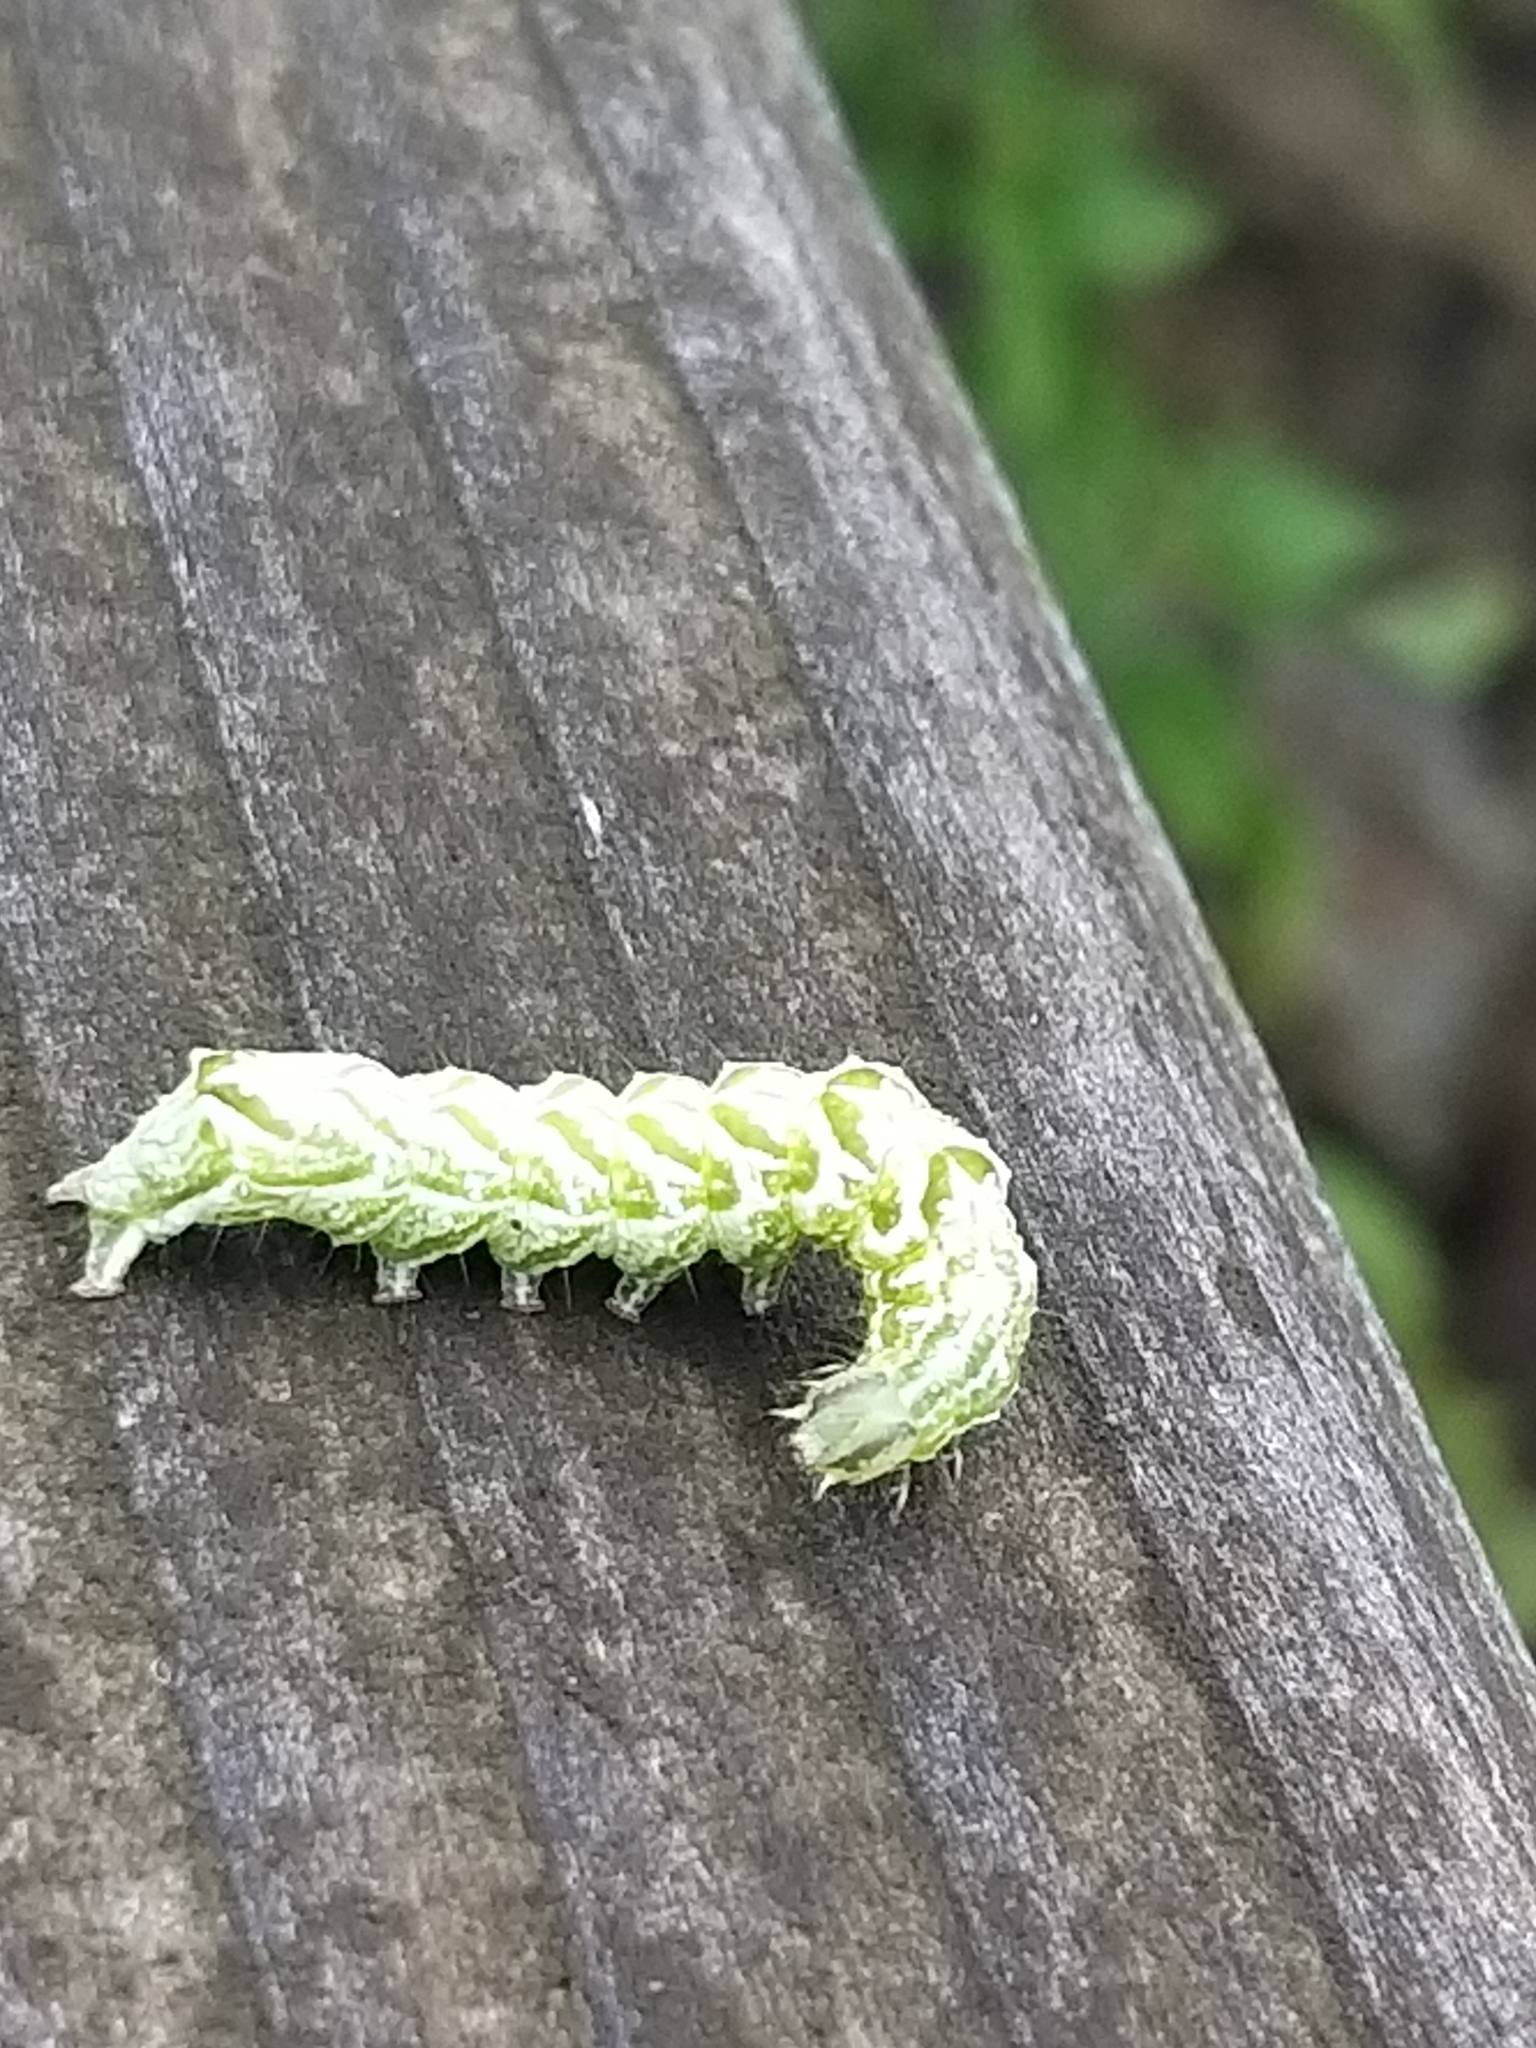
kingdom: Animalia
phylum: Arthropoda
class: Insecta
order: Lepidoptera
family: Noctuidae
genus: Abrostola
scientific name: Abrostola tripartita
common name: Spectacle
